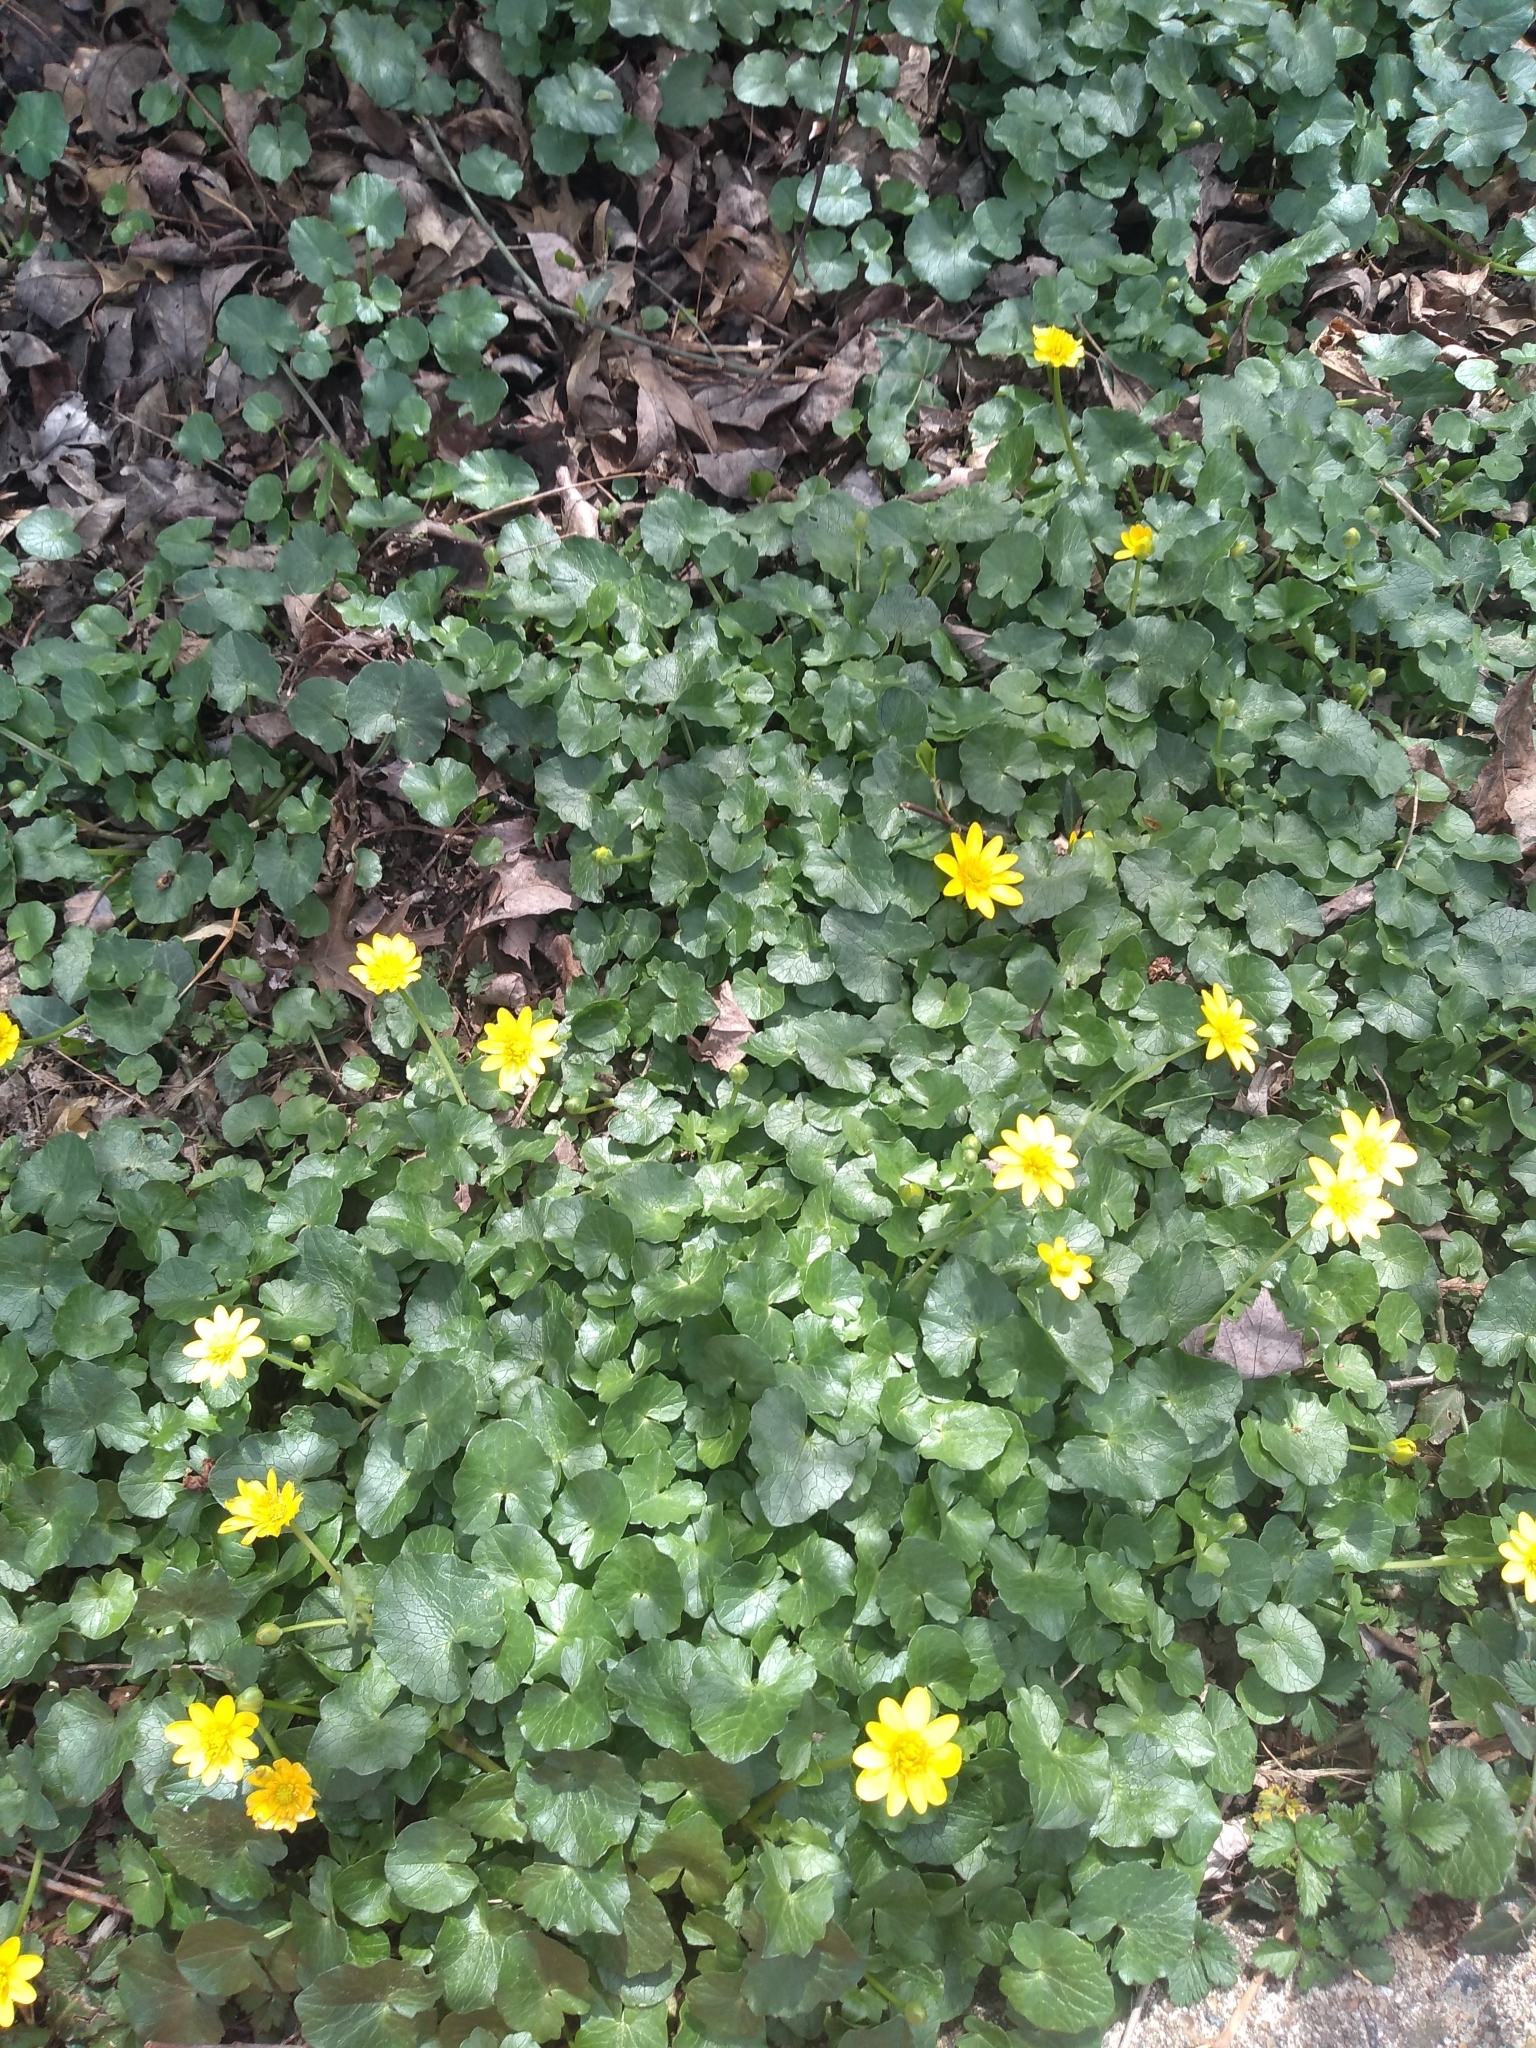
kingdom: Plantae
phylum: Tracheophyta
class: Magnoliopsida
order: Ranunculales
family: Ranunculaceae
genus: Ficaria
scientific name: Ficaria verna
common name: Lesser celandine
